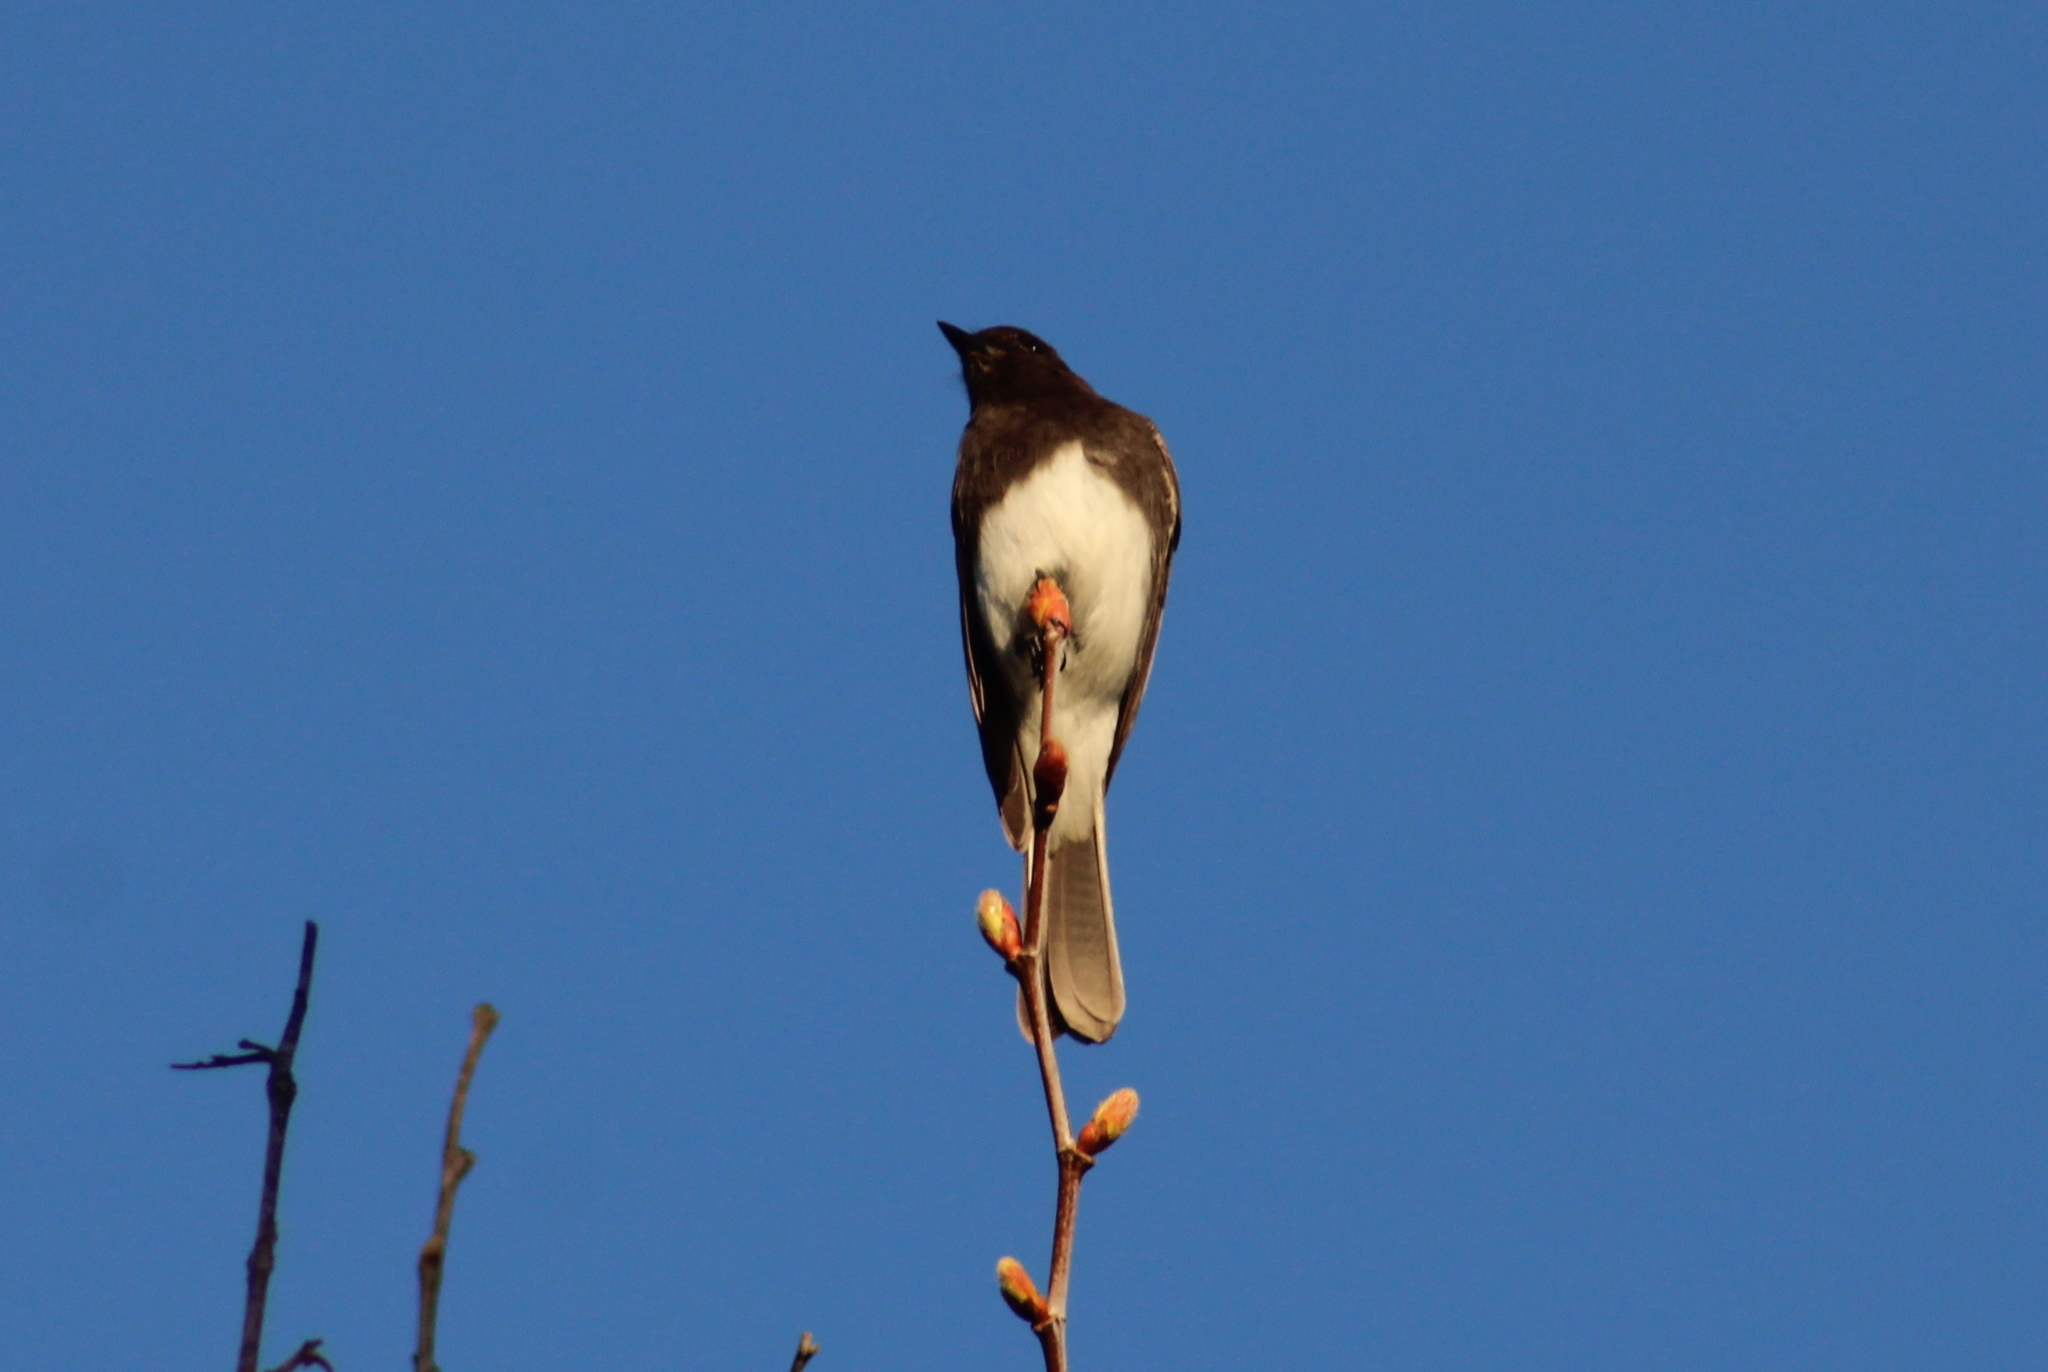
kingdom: Animalia
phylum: Chordata
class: Aves
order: Passeriformes
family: Tyrannidae
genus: Sayornis
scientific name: Sayornis nigricans
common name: Black phoebe
